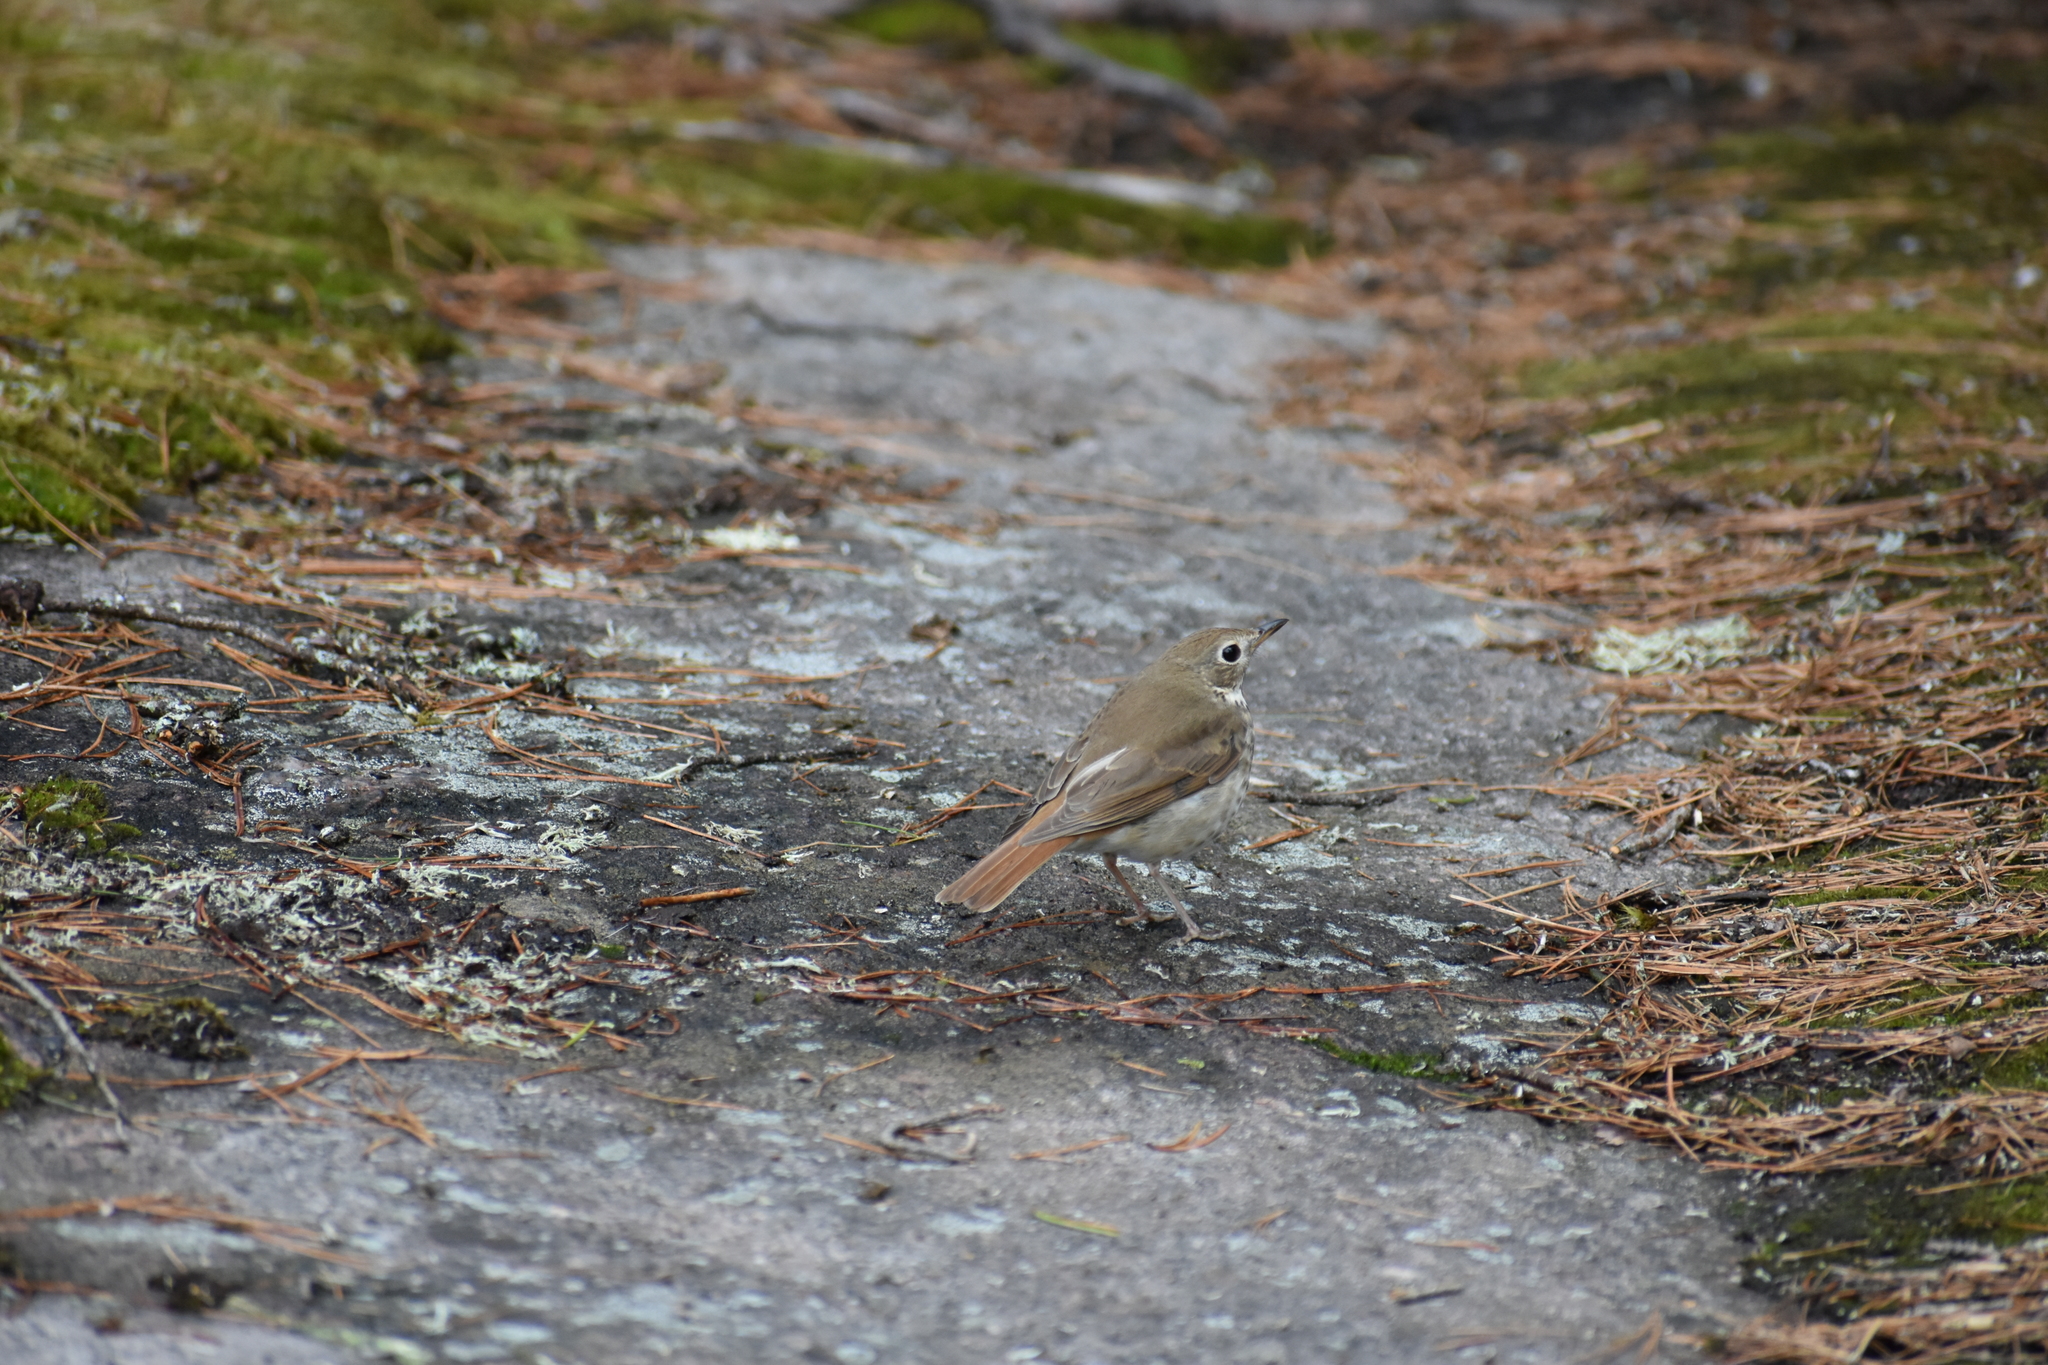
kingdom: Animalia
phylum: Chordata
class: Aves
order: Passeriformes
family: Turdidae
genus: Catharus
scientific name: Catharus guttatus
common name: Hermit thrush
